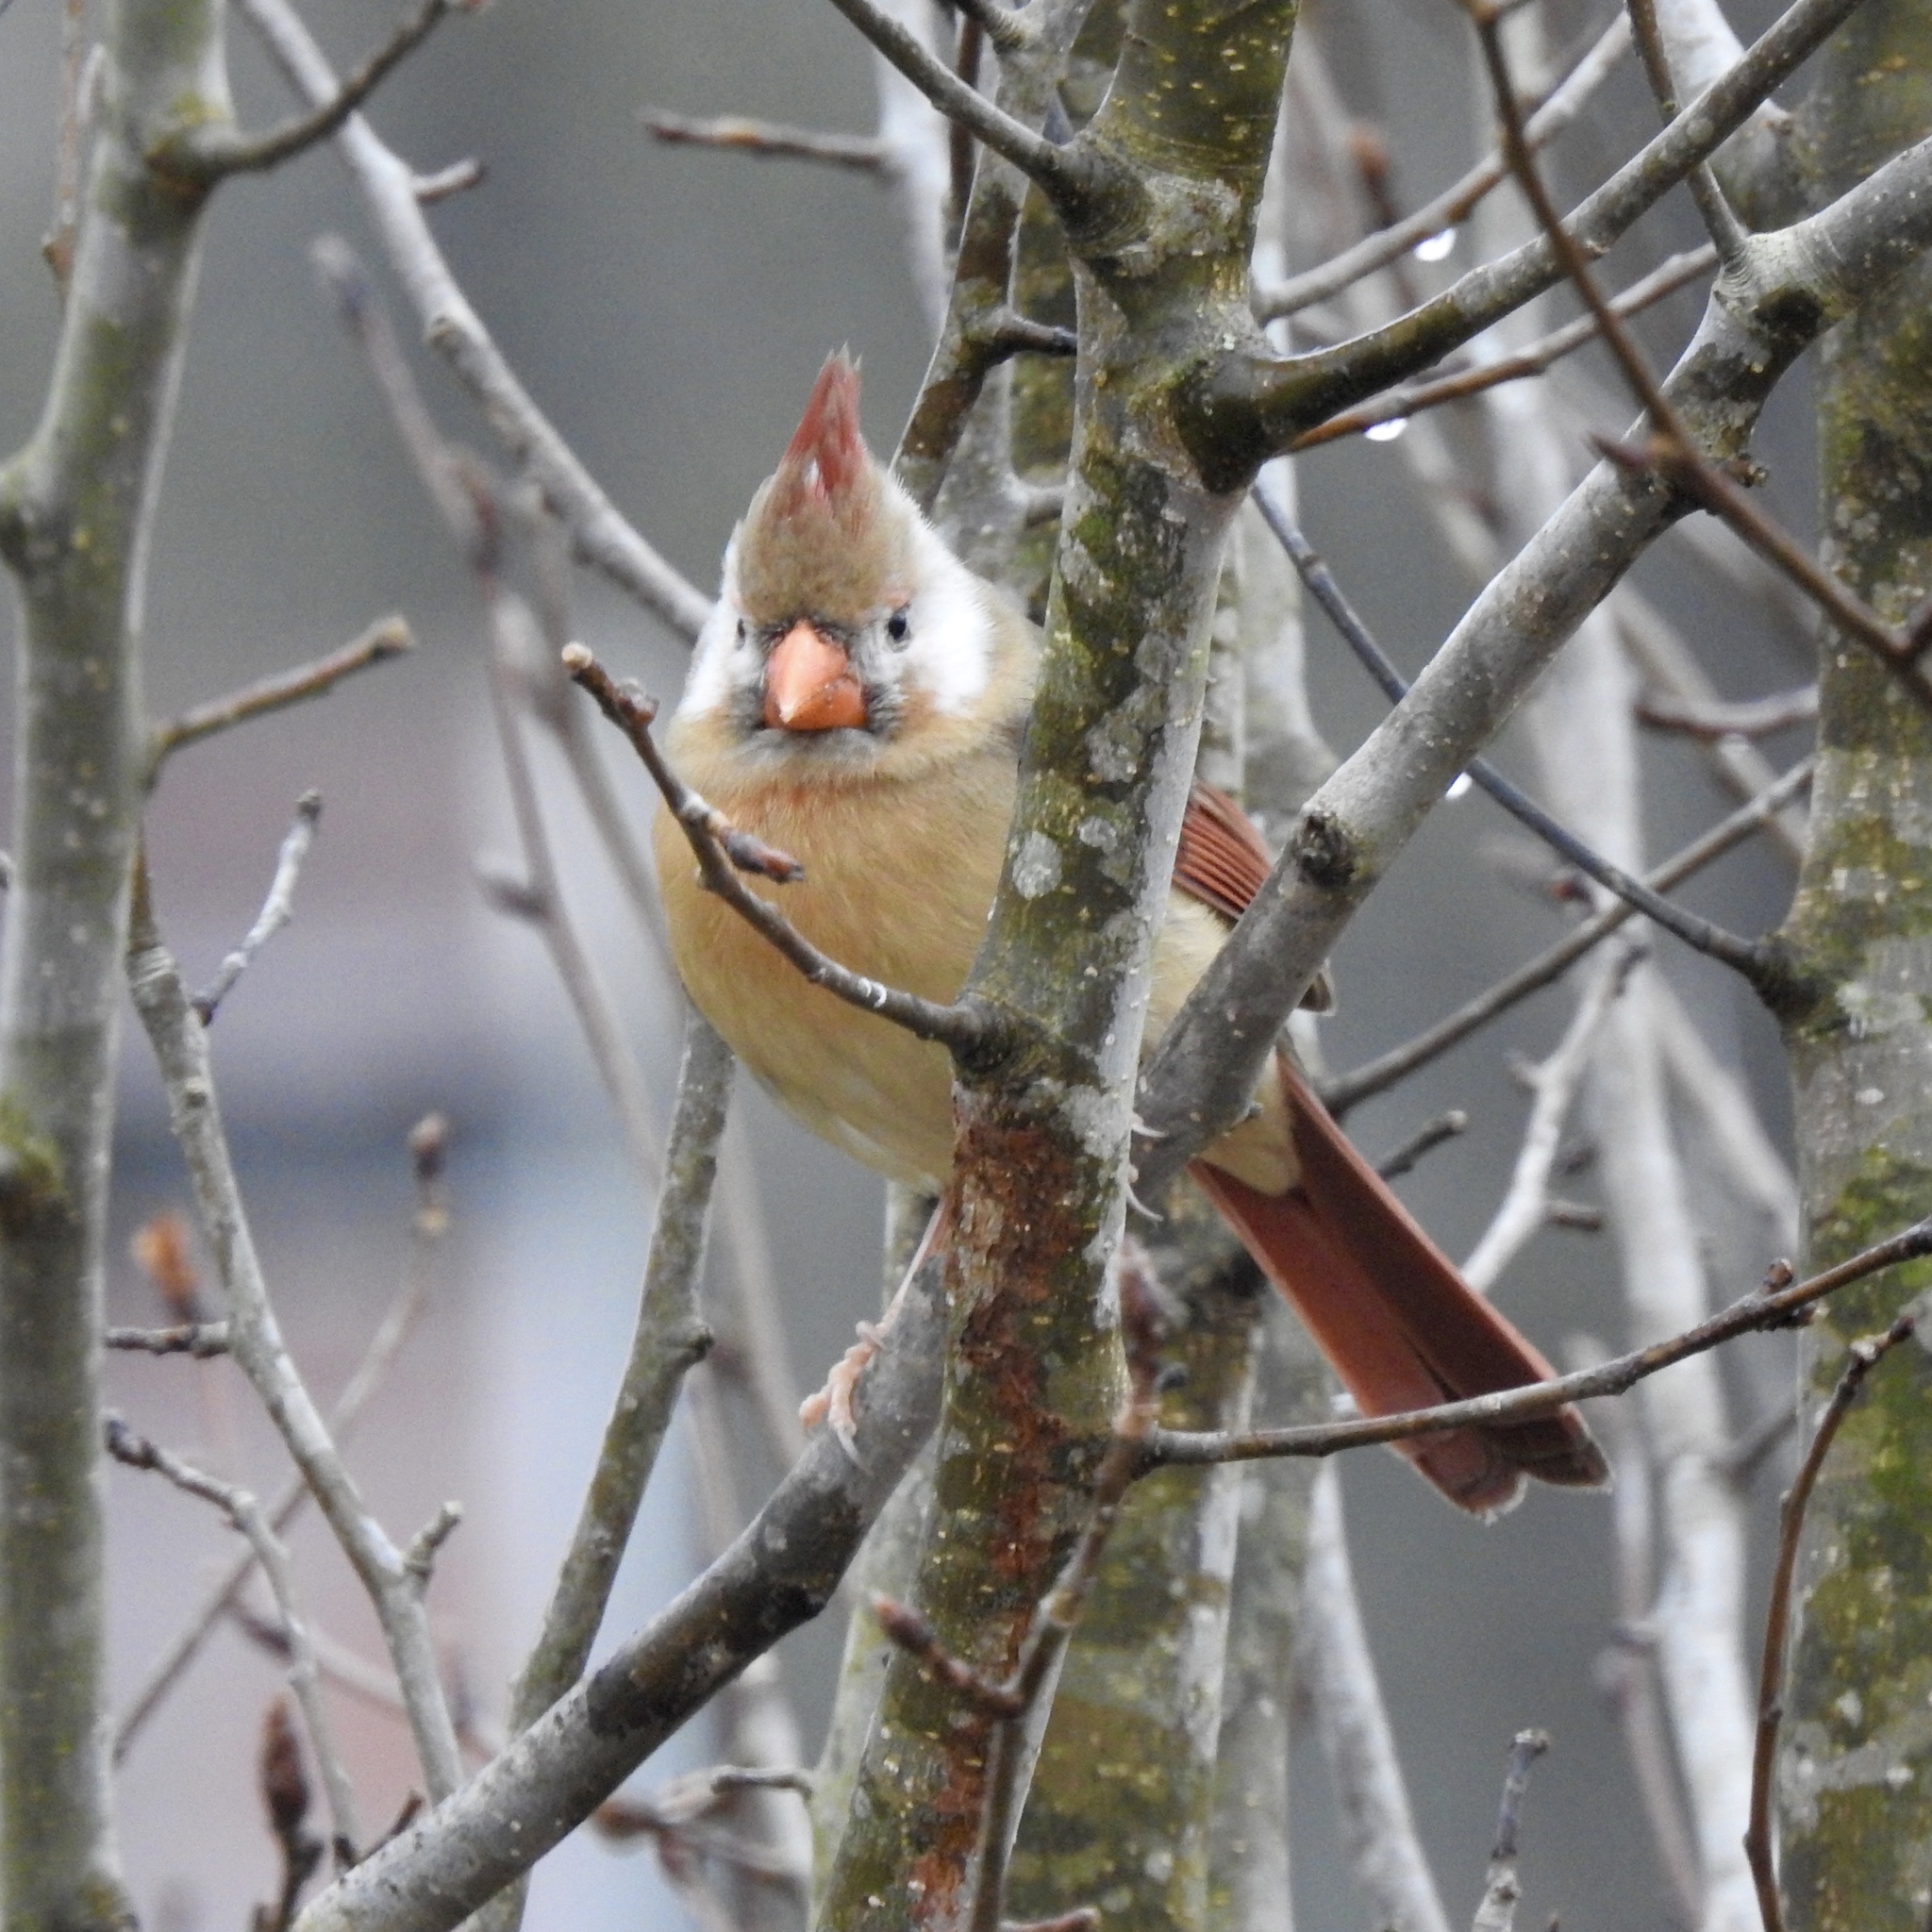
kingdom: Animalia
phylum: Chordata
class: Aves
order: Passeriformes
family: Cardinalidae
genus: Cardinalis
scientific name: Cardinalis cardinalis
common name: Northern cardinal
